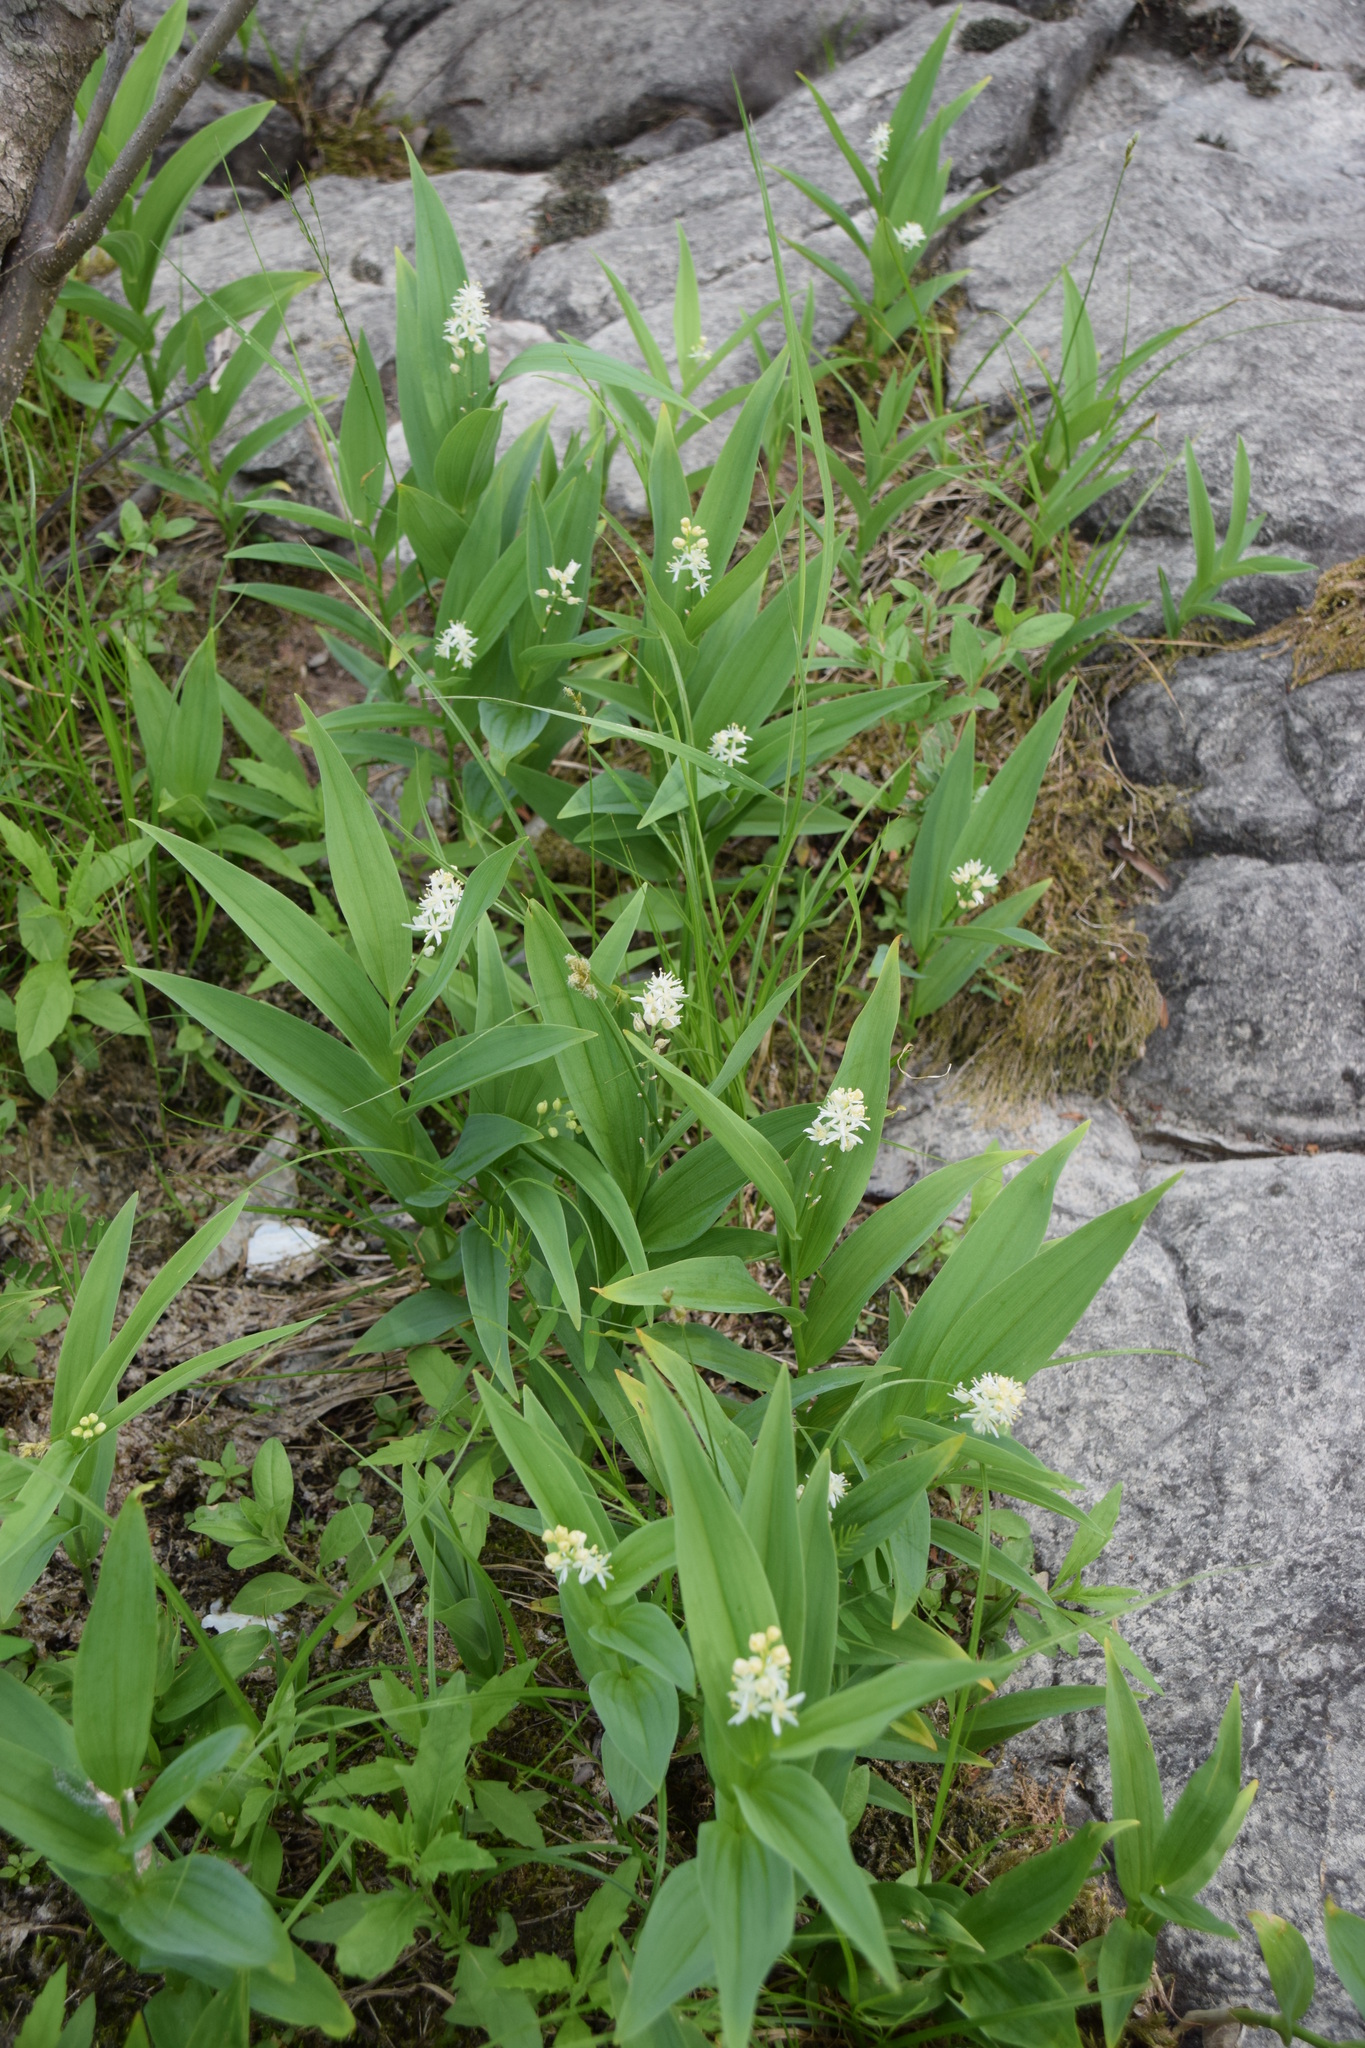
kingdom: Plantae
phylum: Tracheophyta
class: Liliopsida
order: Asparagales
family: Asparagaceae
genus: Maianthemum
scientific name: Maianthemum stellatum
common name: Little false solomon's seal
